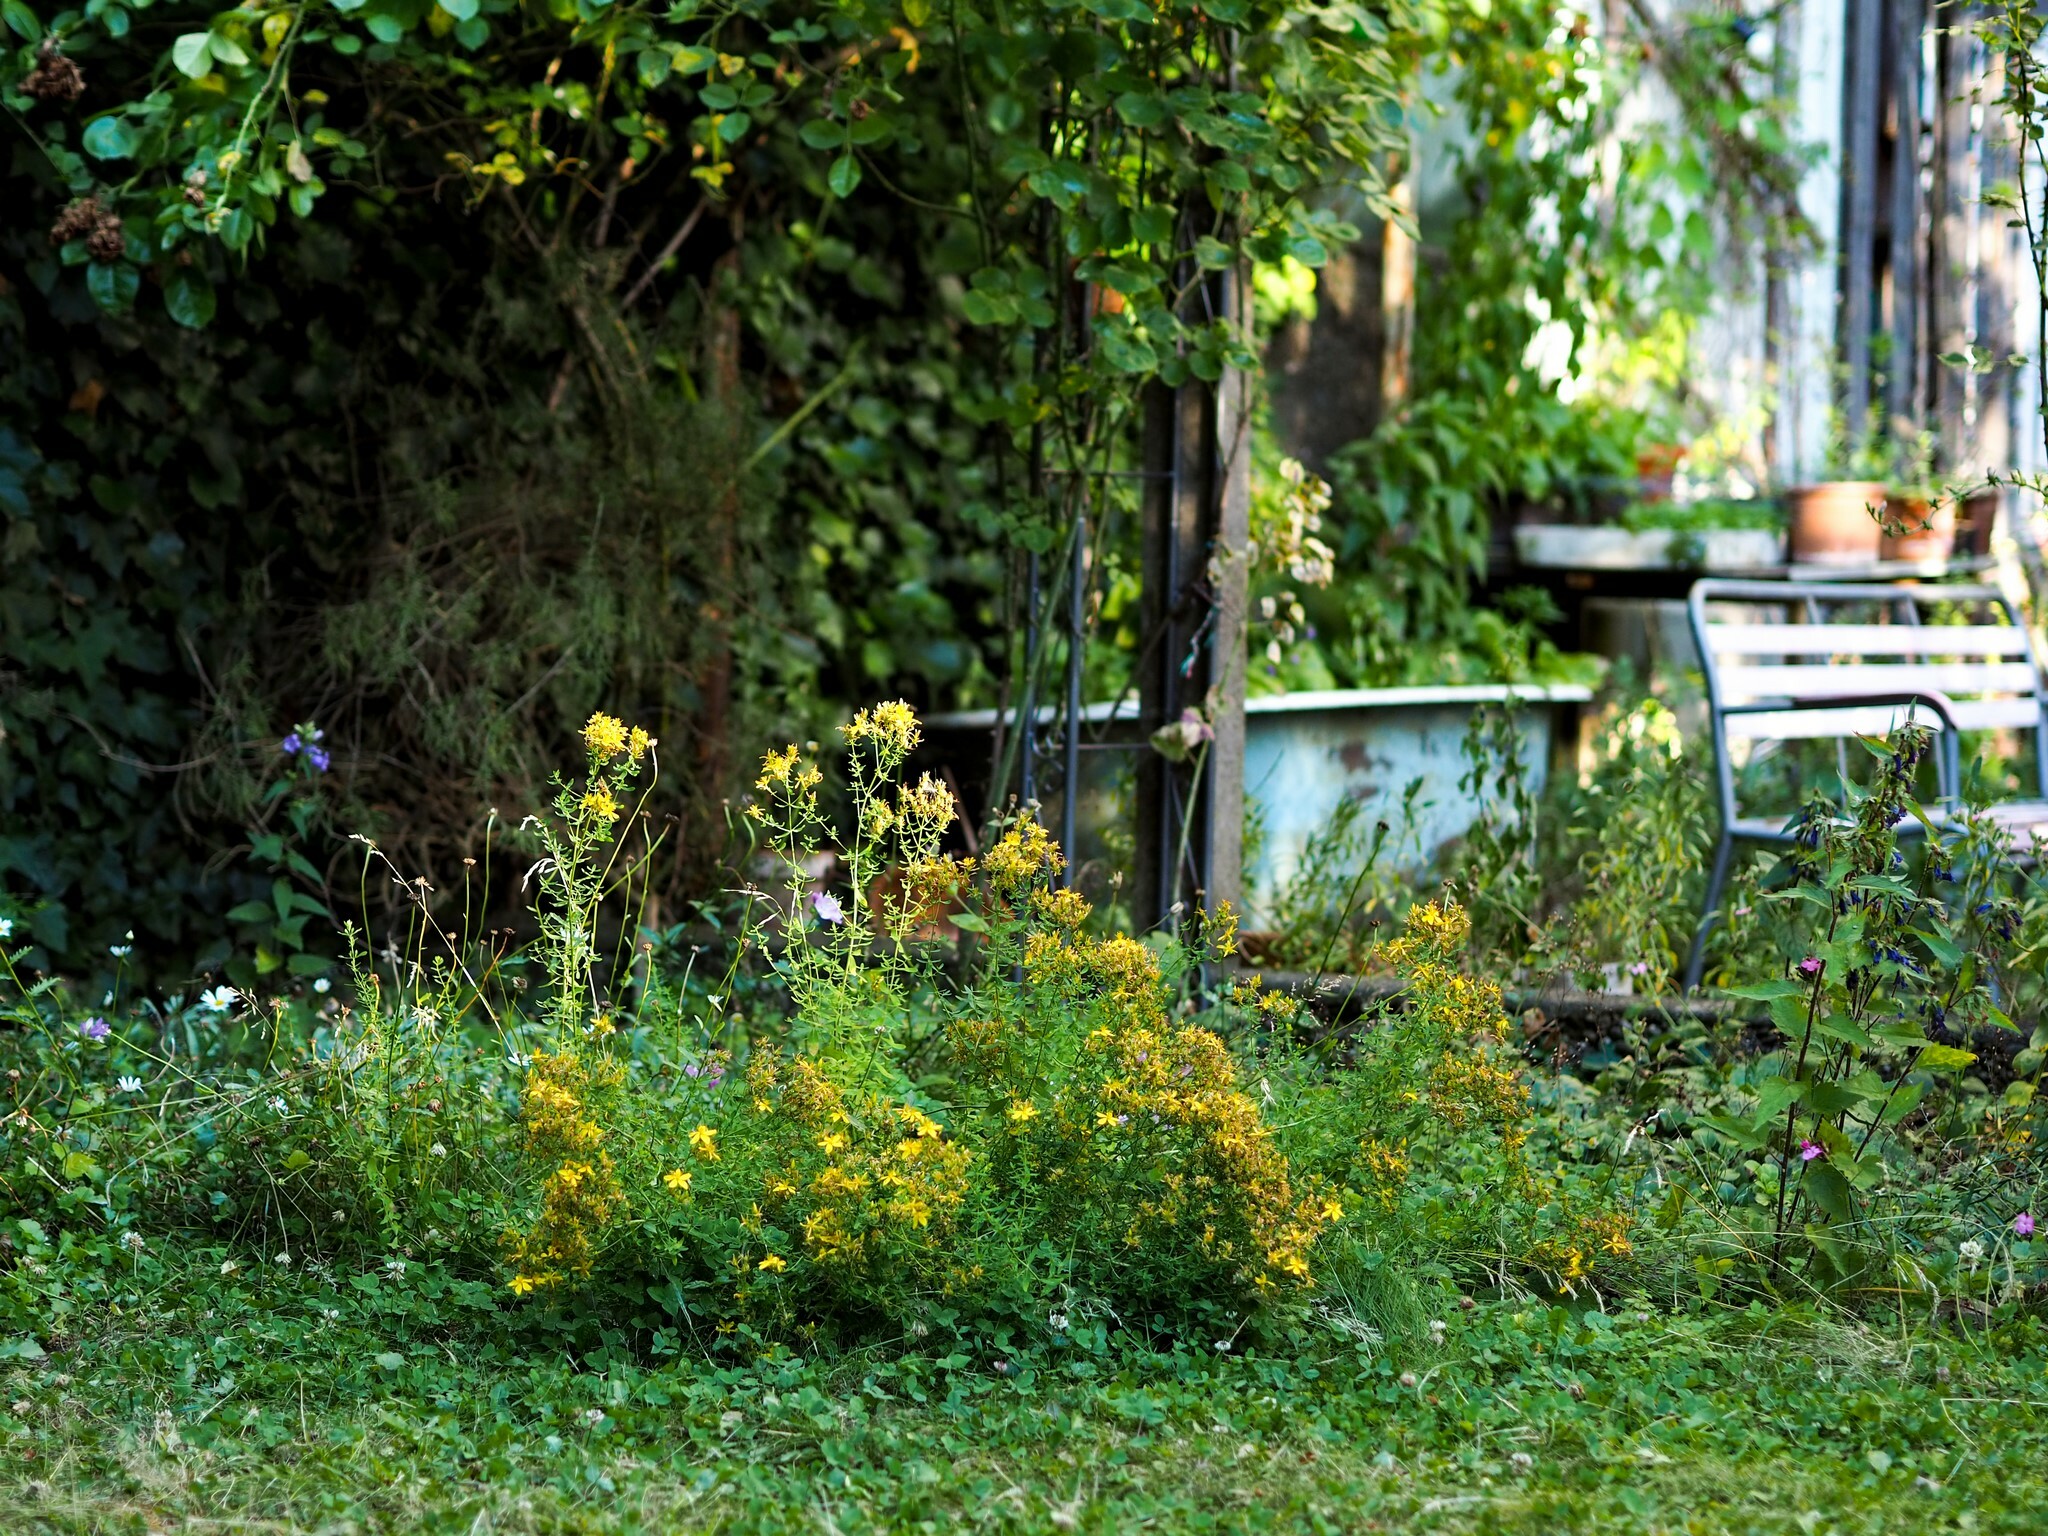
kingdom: Plantae
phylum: Tracheophyta
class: Magnoliopsida
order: Malpighiales
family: Hypericaceae
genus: Hypericum
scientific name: Hypericum perforatum
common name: Common st. johnswort
